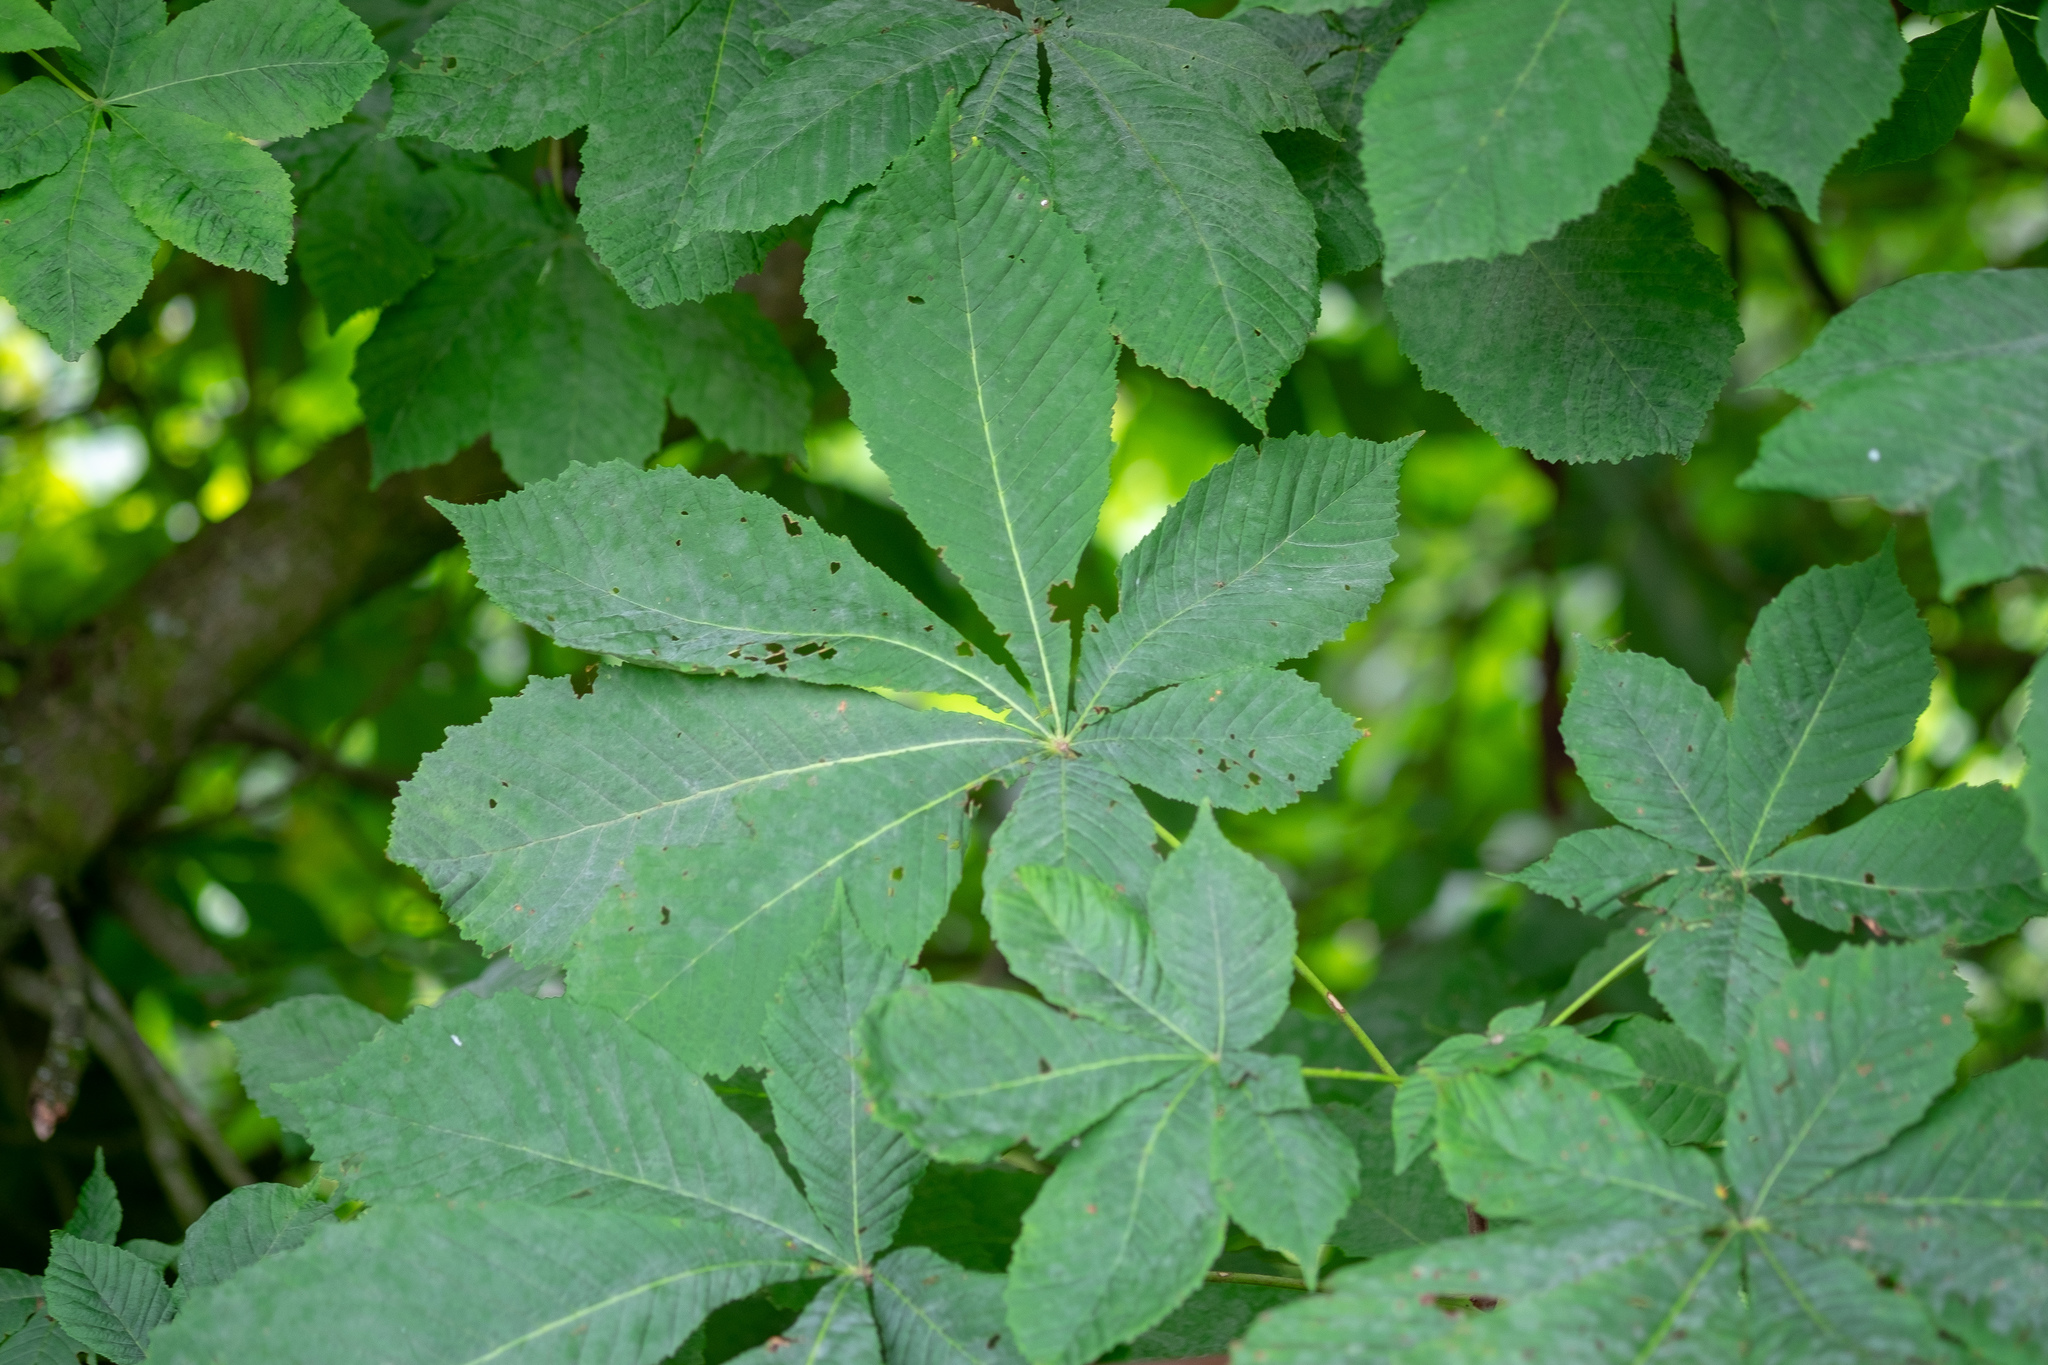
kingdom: Plantae
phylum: Tracheophyta
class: Magnoliopsida
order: Sapindales
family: Sapindaceae
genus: Aesculus
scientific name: Aesculus hippocastanum
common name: Horse-chestnut
